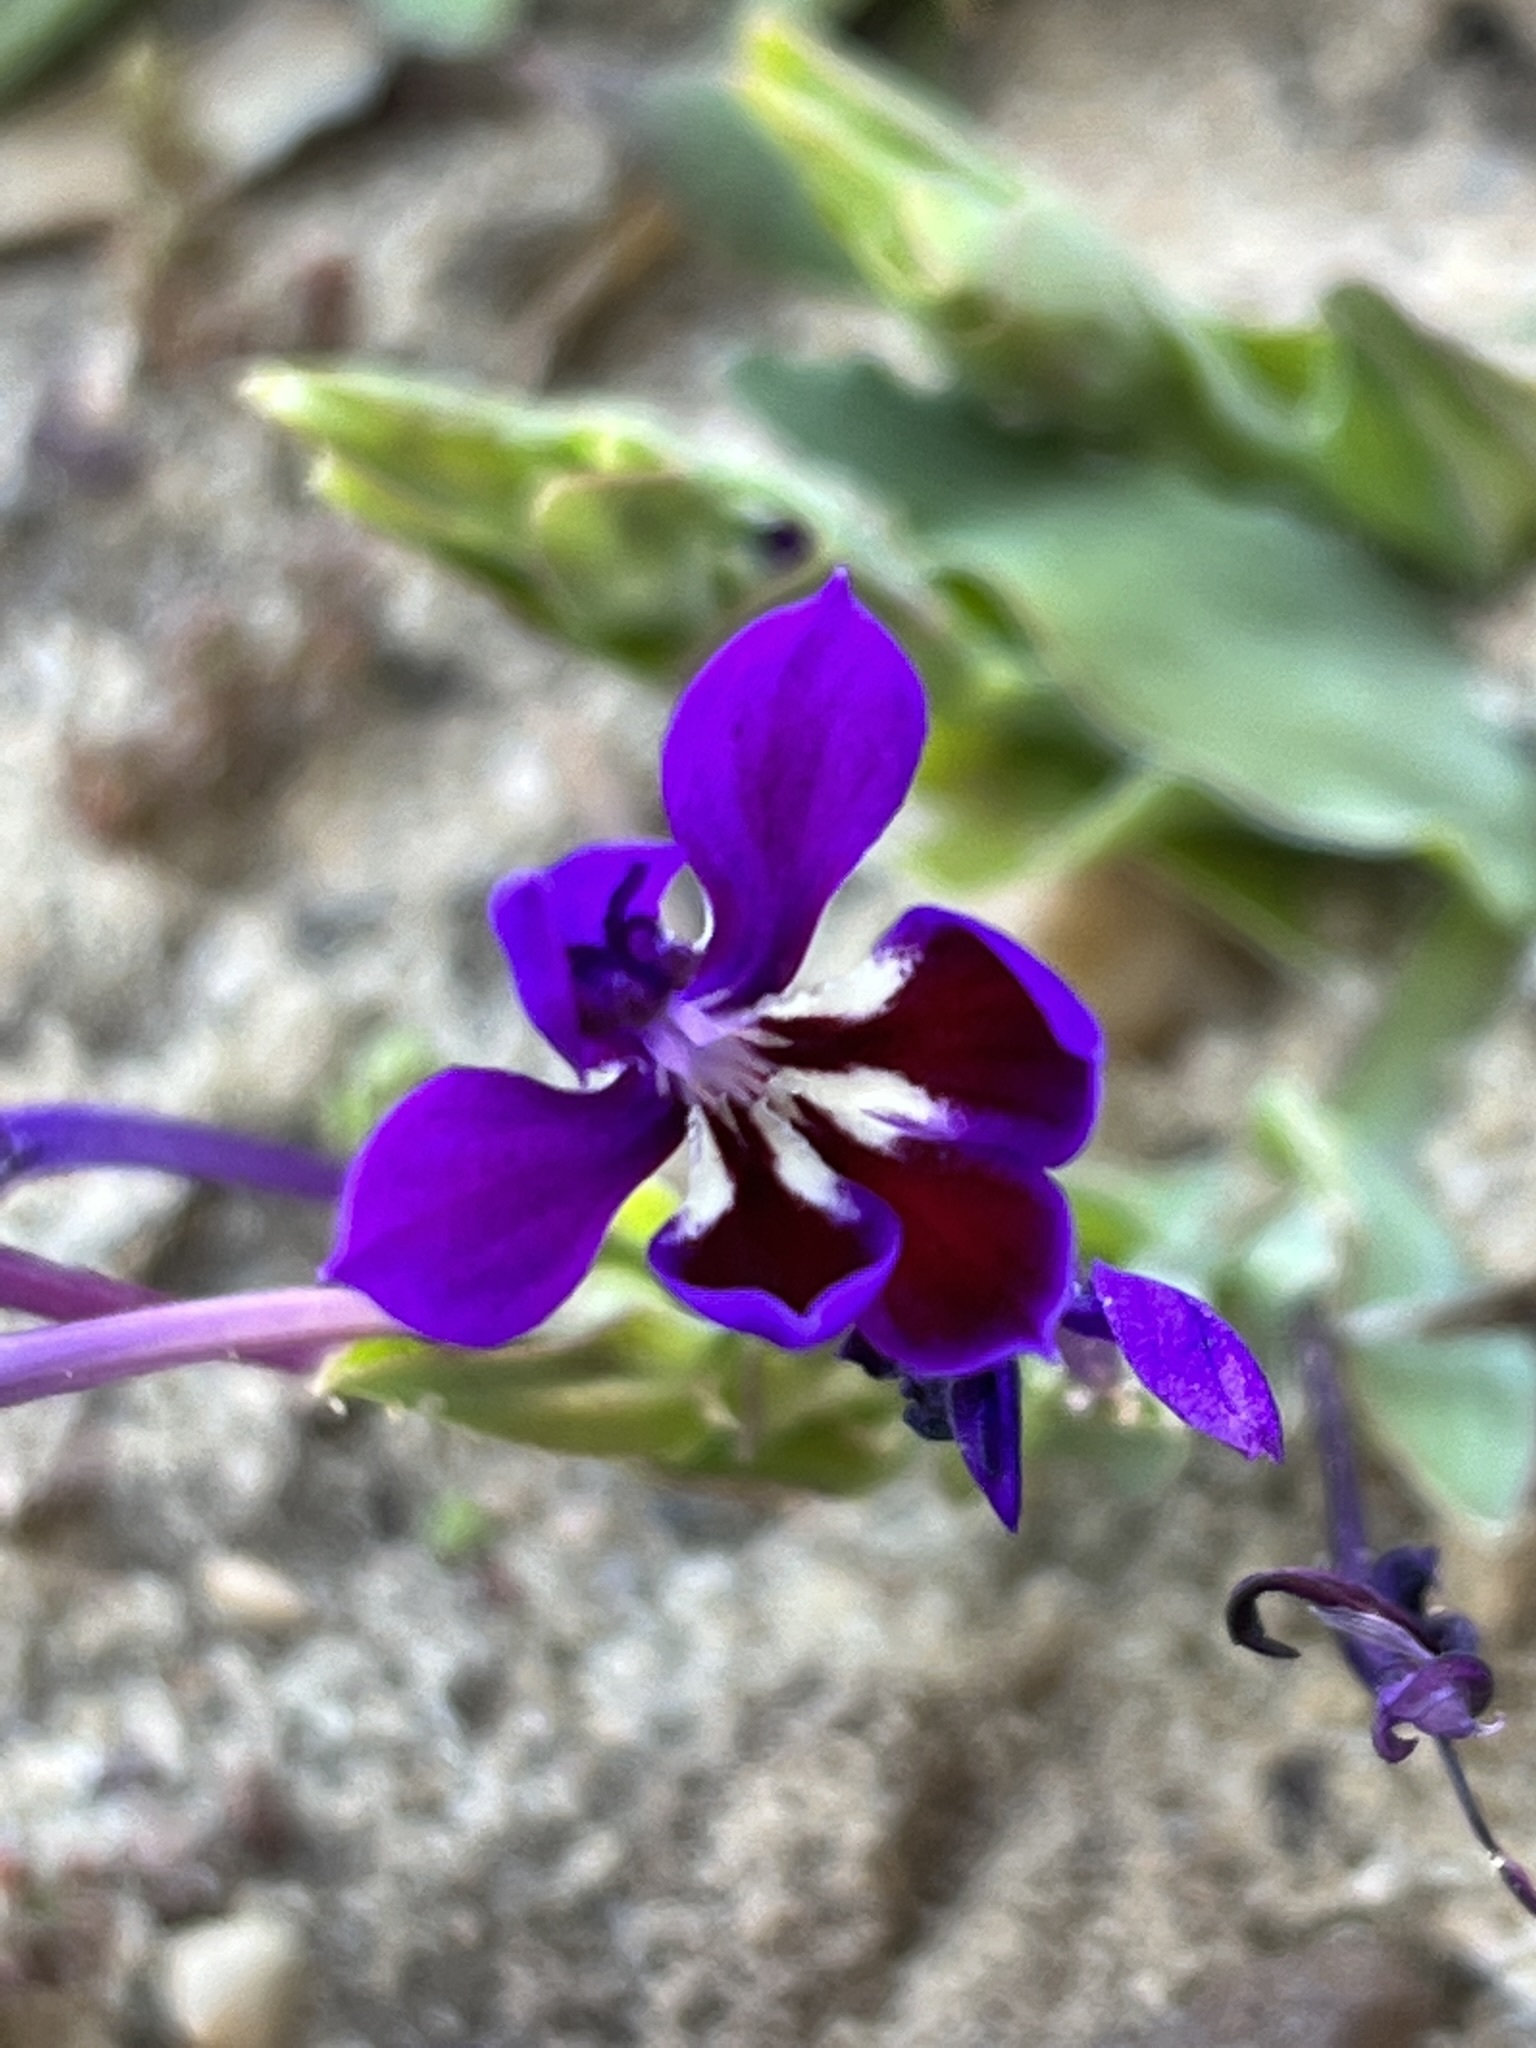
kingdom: Plantae
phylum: Tracheophyta
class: Liliopsida
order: Asparagales
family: Iridaceae
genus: Lapeirousia
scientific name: Lapeirousia jacquinii
